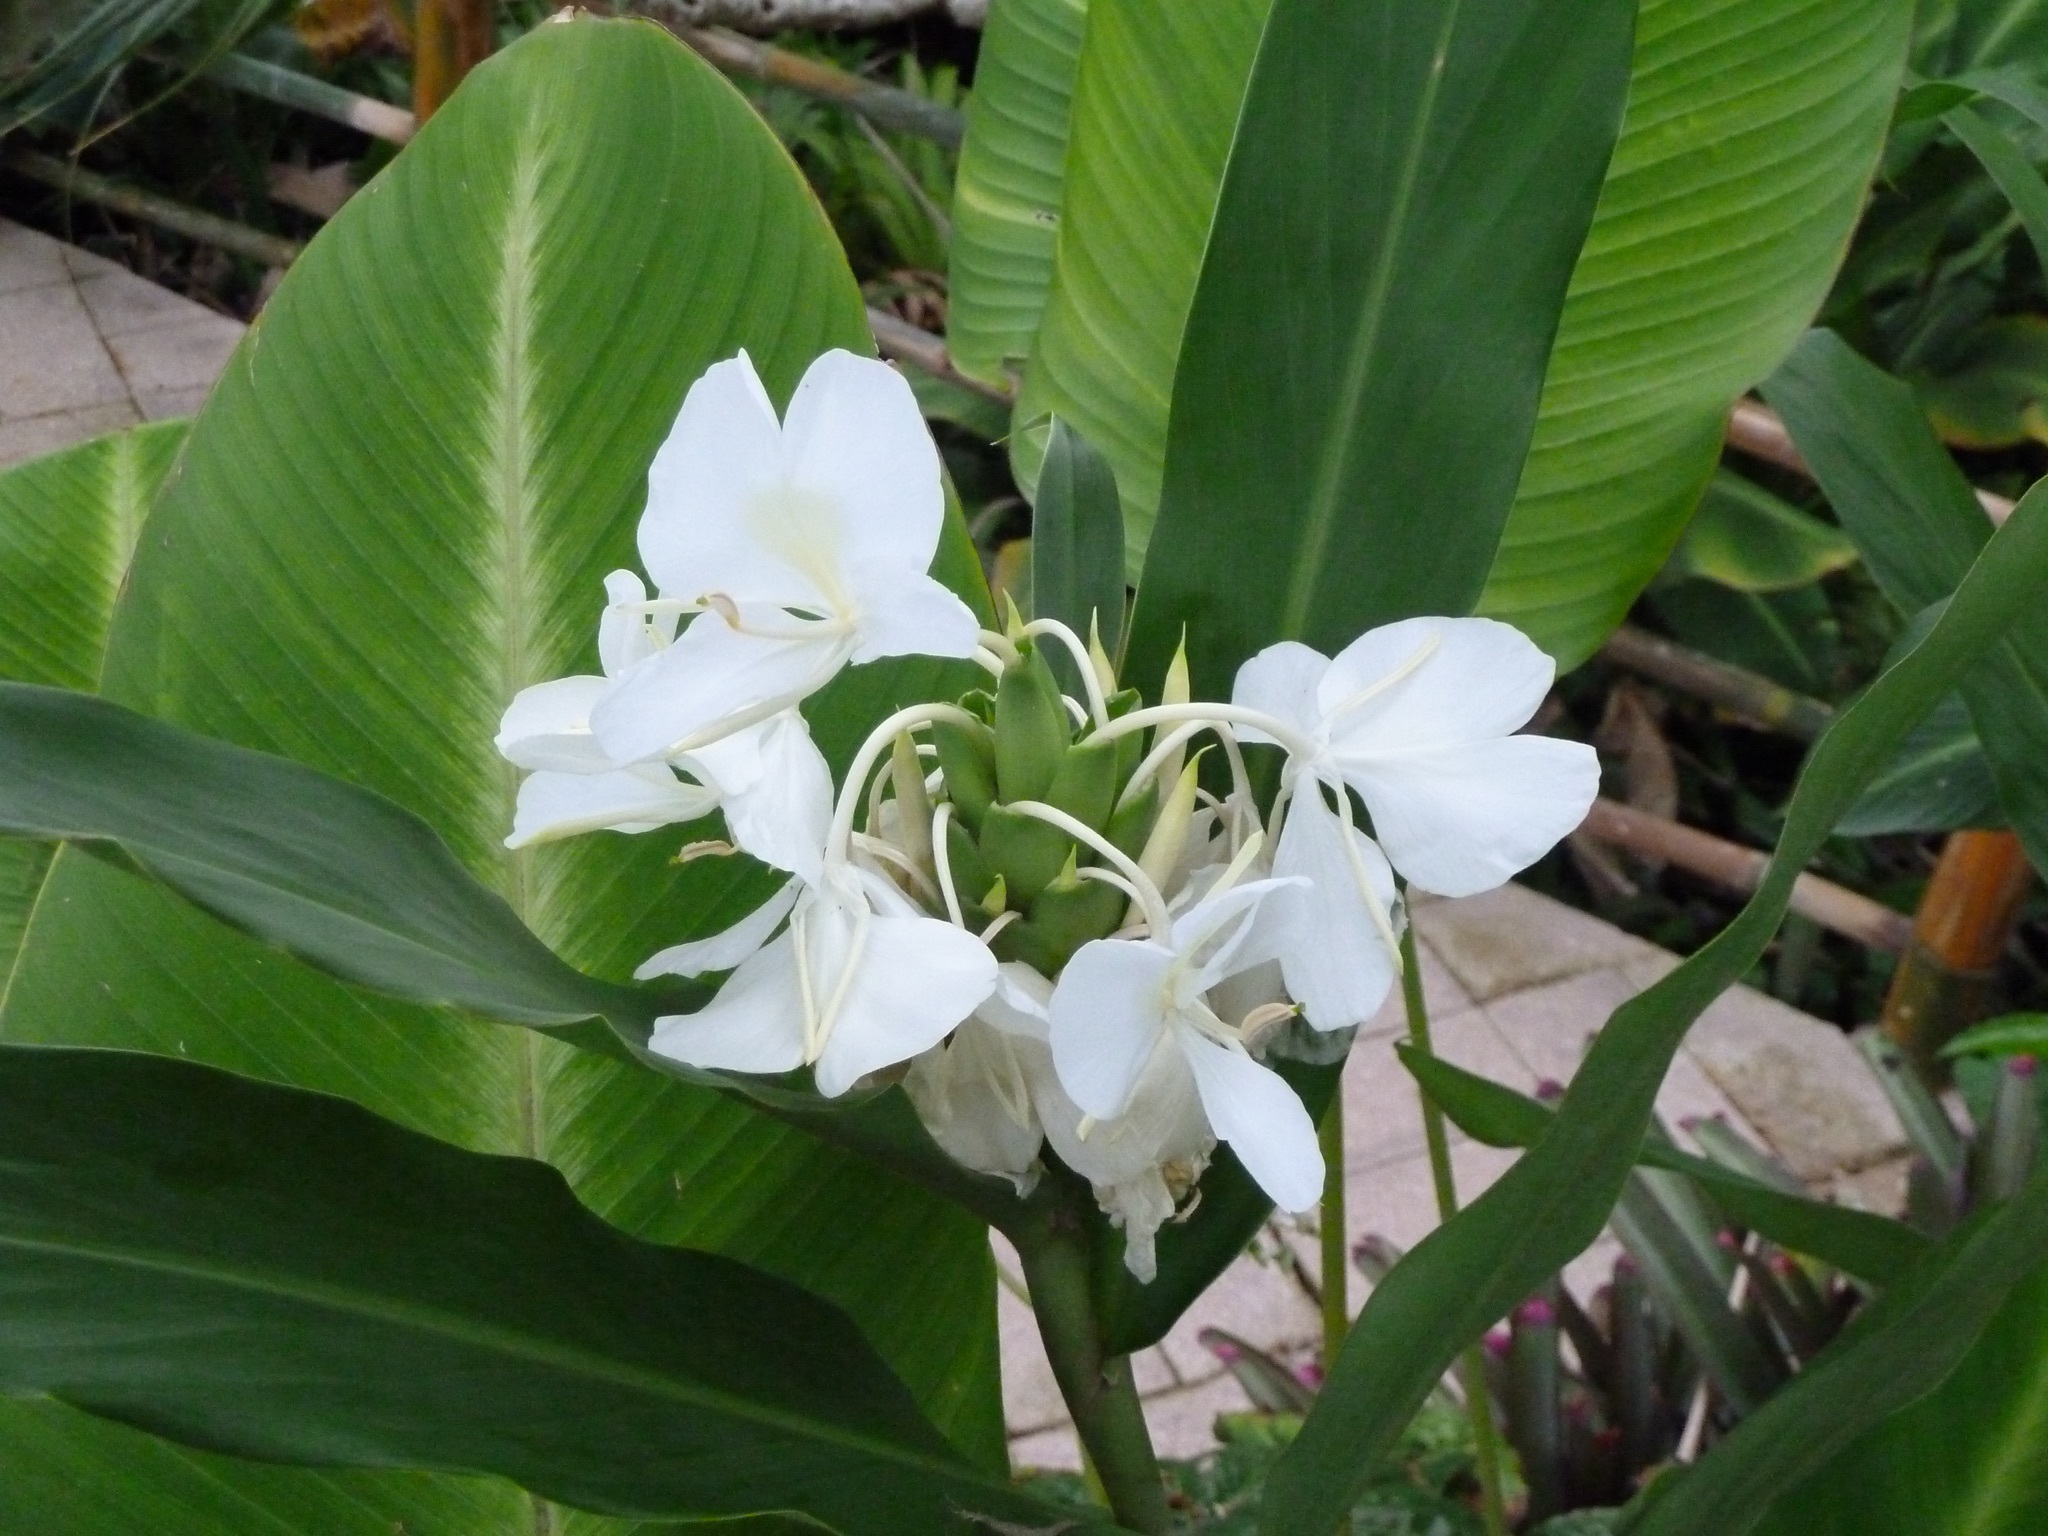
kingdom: Plantae
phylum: Tracheophyta
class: Liliopsida
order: Zingiberales
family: Zingiberaceae
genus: Hedychium
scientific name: Hedychium coronarium
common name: White garland-lily
